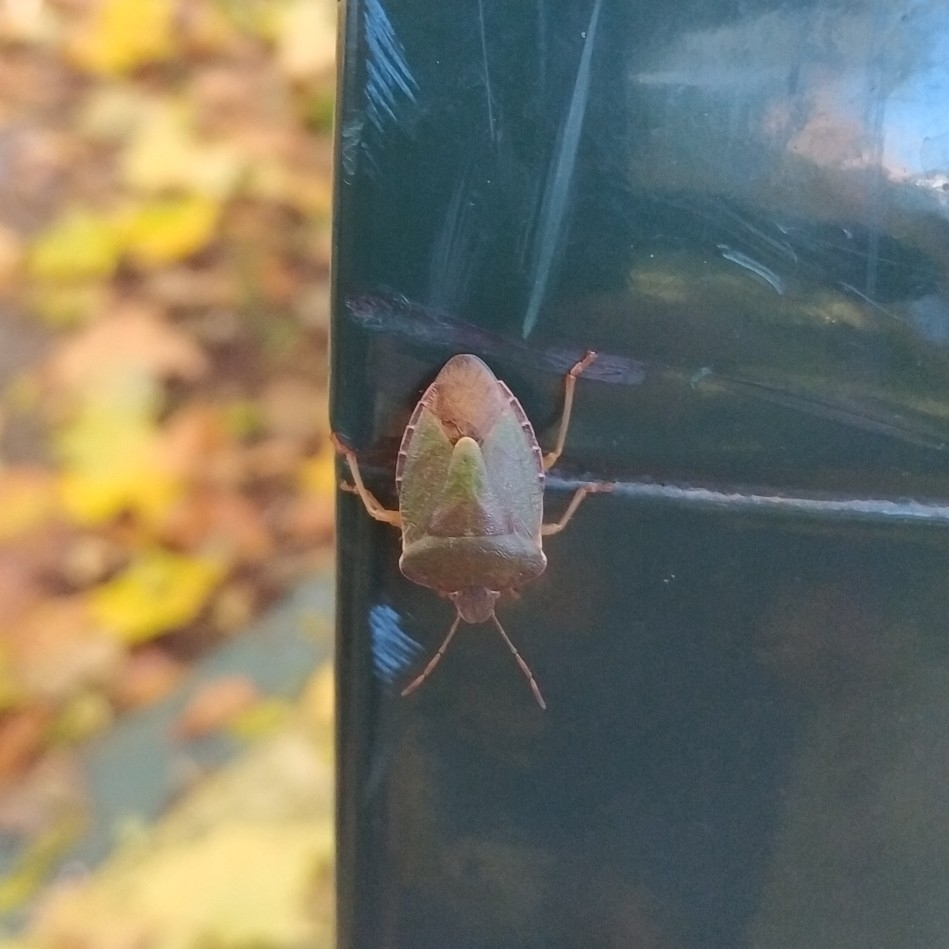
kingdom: Animalia
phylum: Arthropoda
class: Insecta
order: Hemiptera
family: Pentatomidae
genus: Palomena
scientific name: Palomena prasina
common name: Green shieldbug
